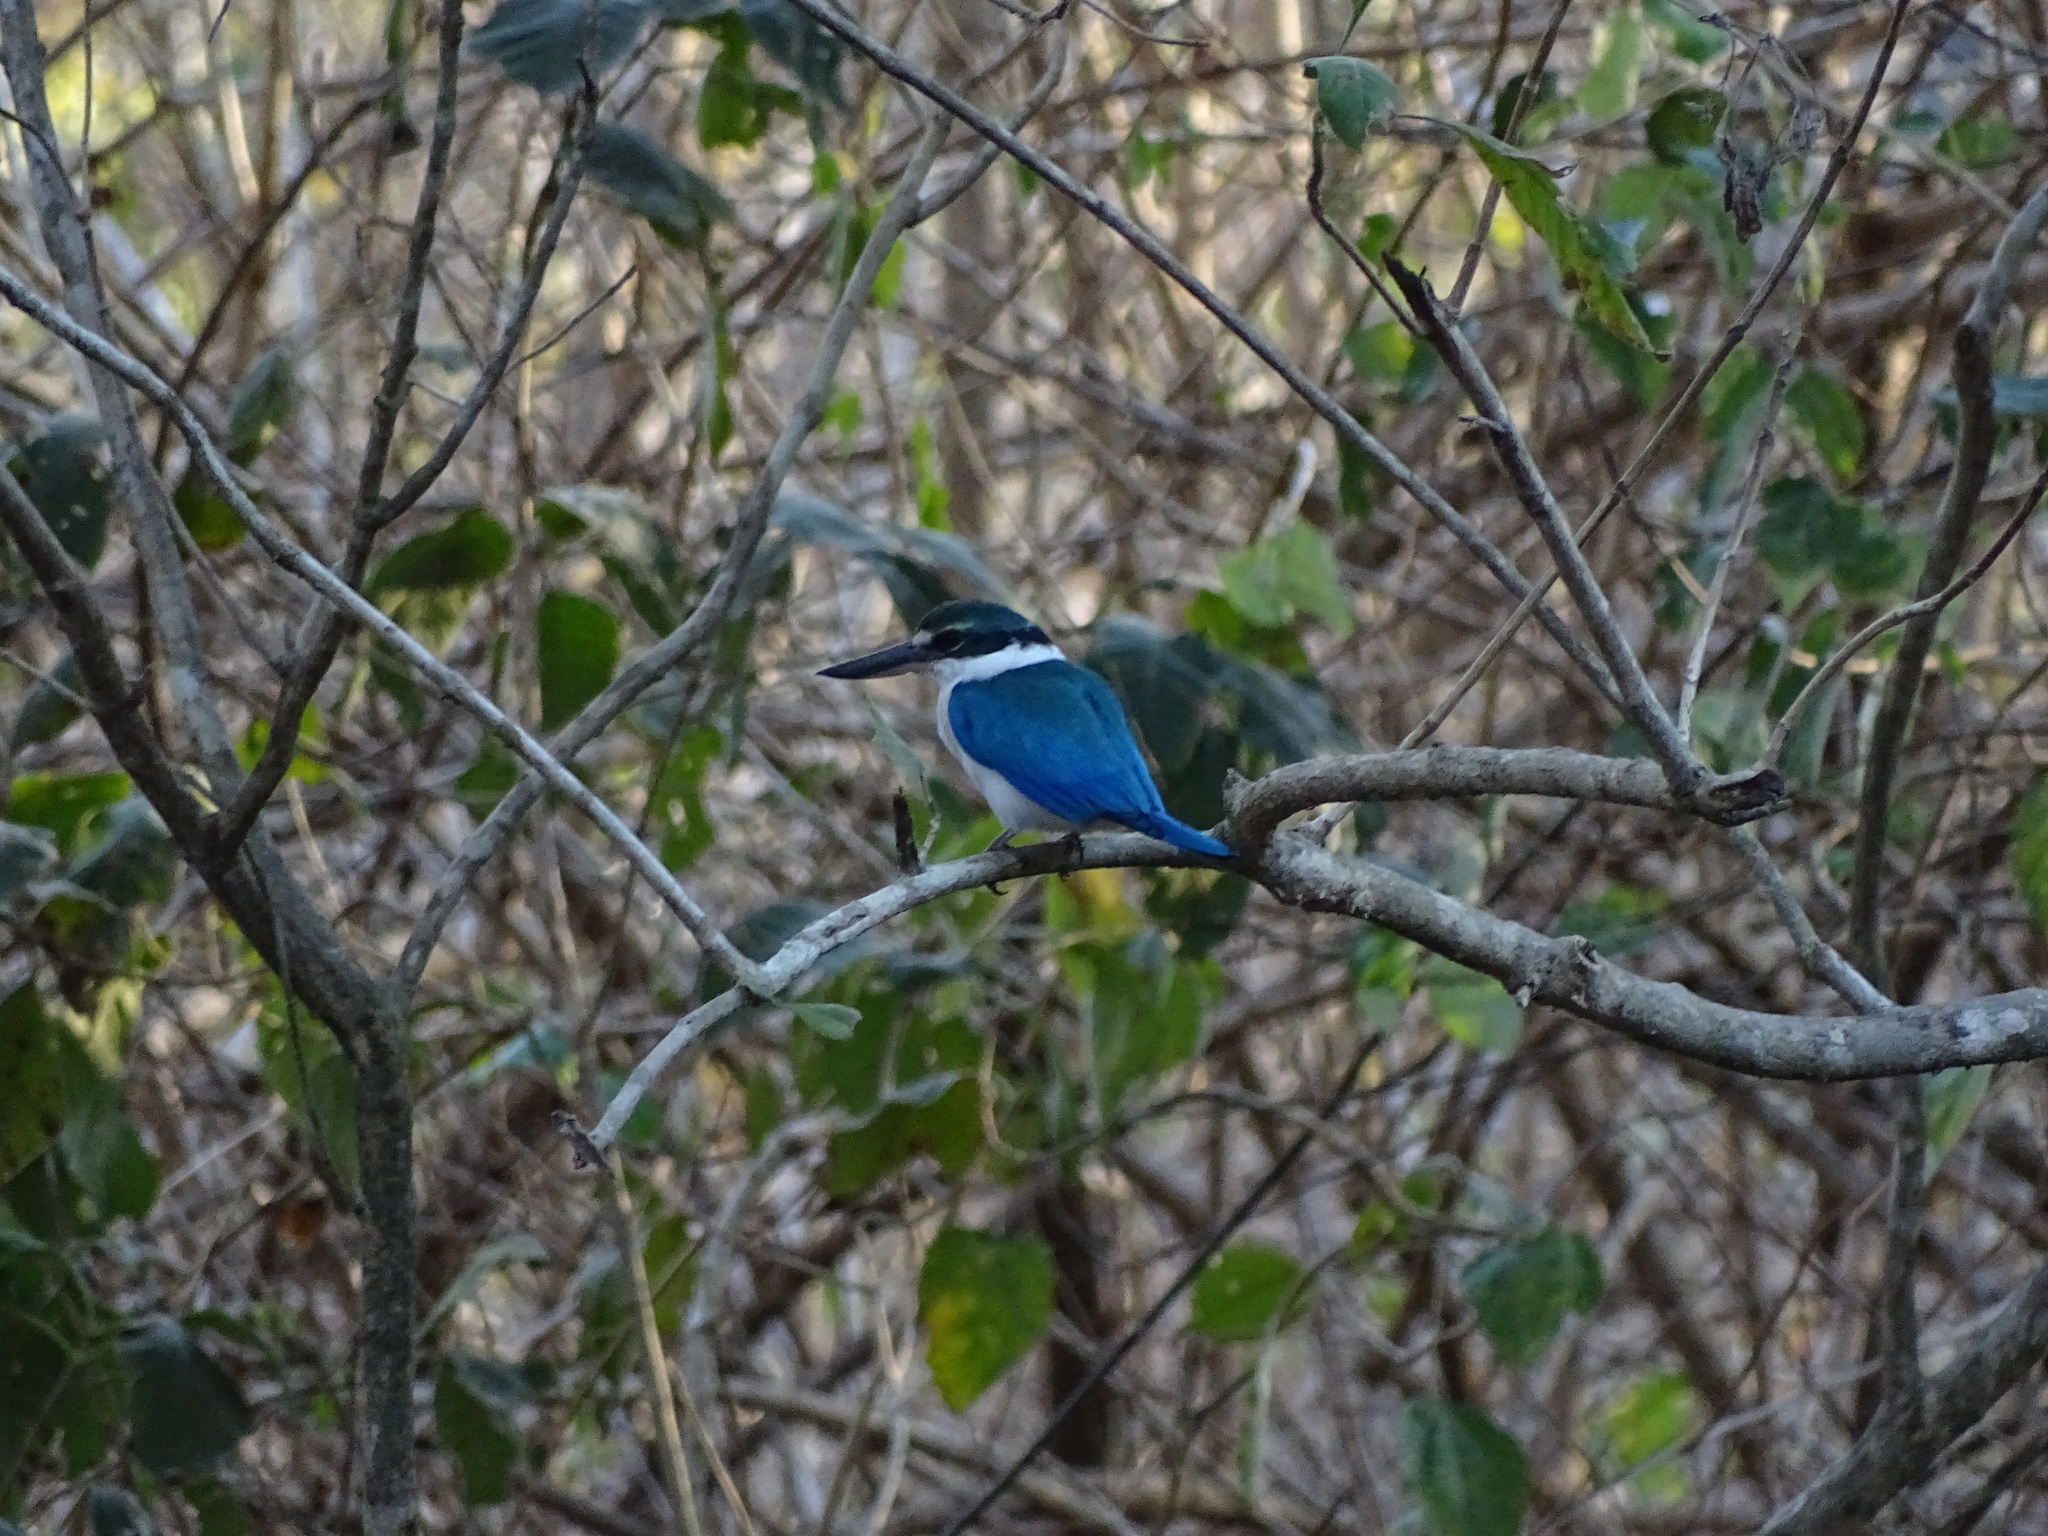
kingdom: Animalia
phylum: Chordata
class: Aves
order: Coraciiformes
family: Alcedinidae
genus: Todiramphus
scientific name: Todiramphus chloris
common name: Collared kingfisher
